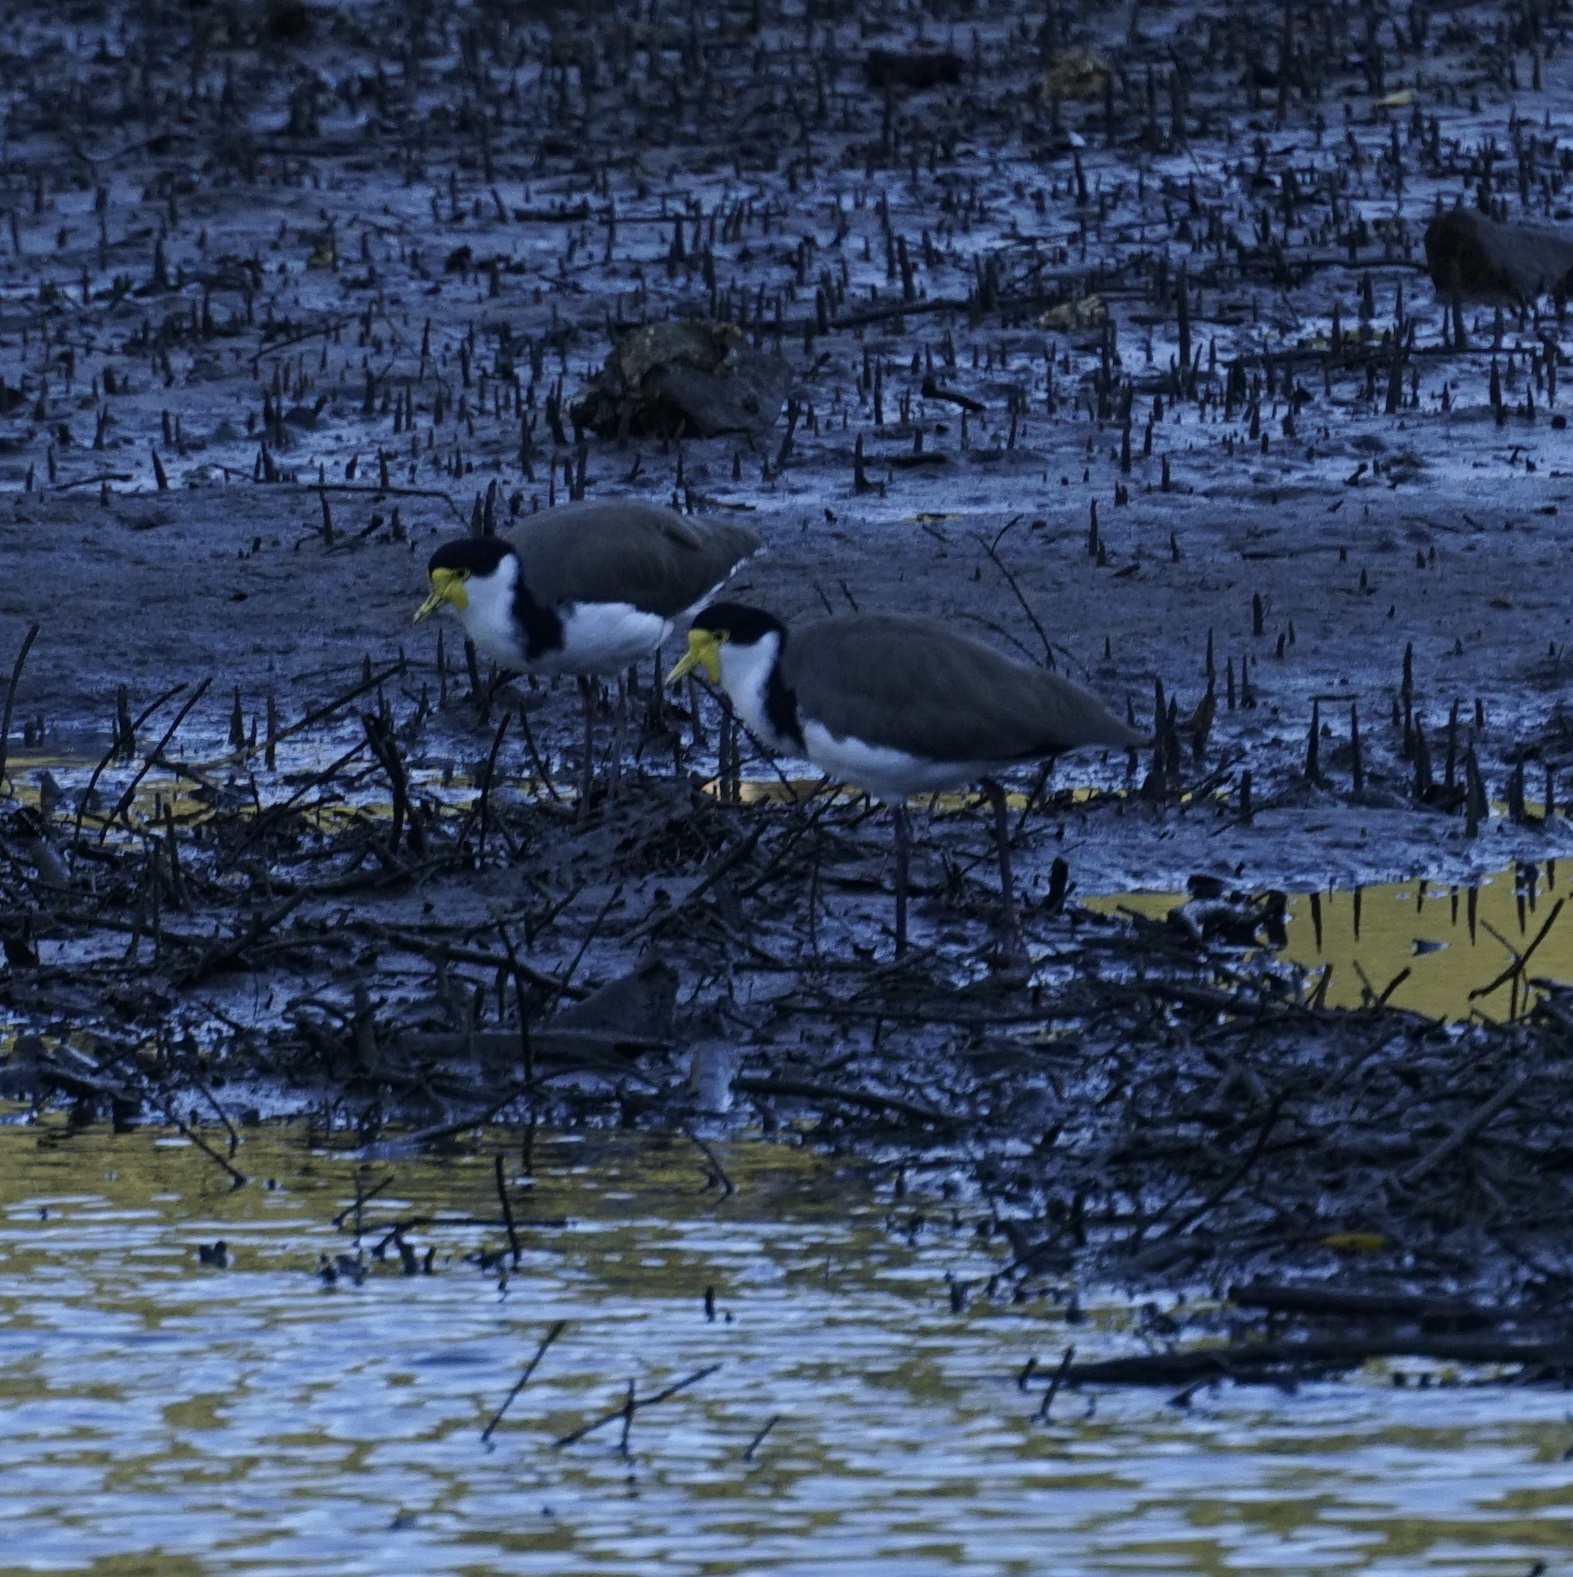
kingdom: Animalia
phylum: Chordata
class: Aves
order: Charadriiformes
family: Charadriidae
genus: Vanellus
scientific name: Vanellus miles
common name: Masked lapwing
